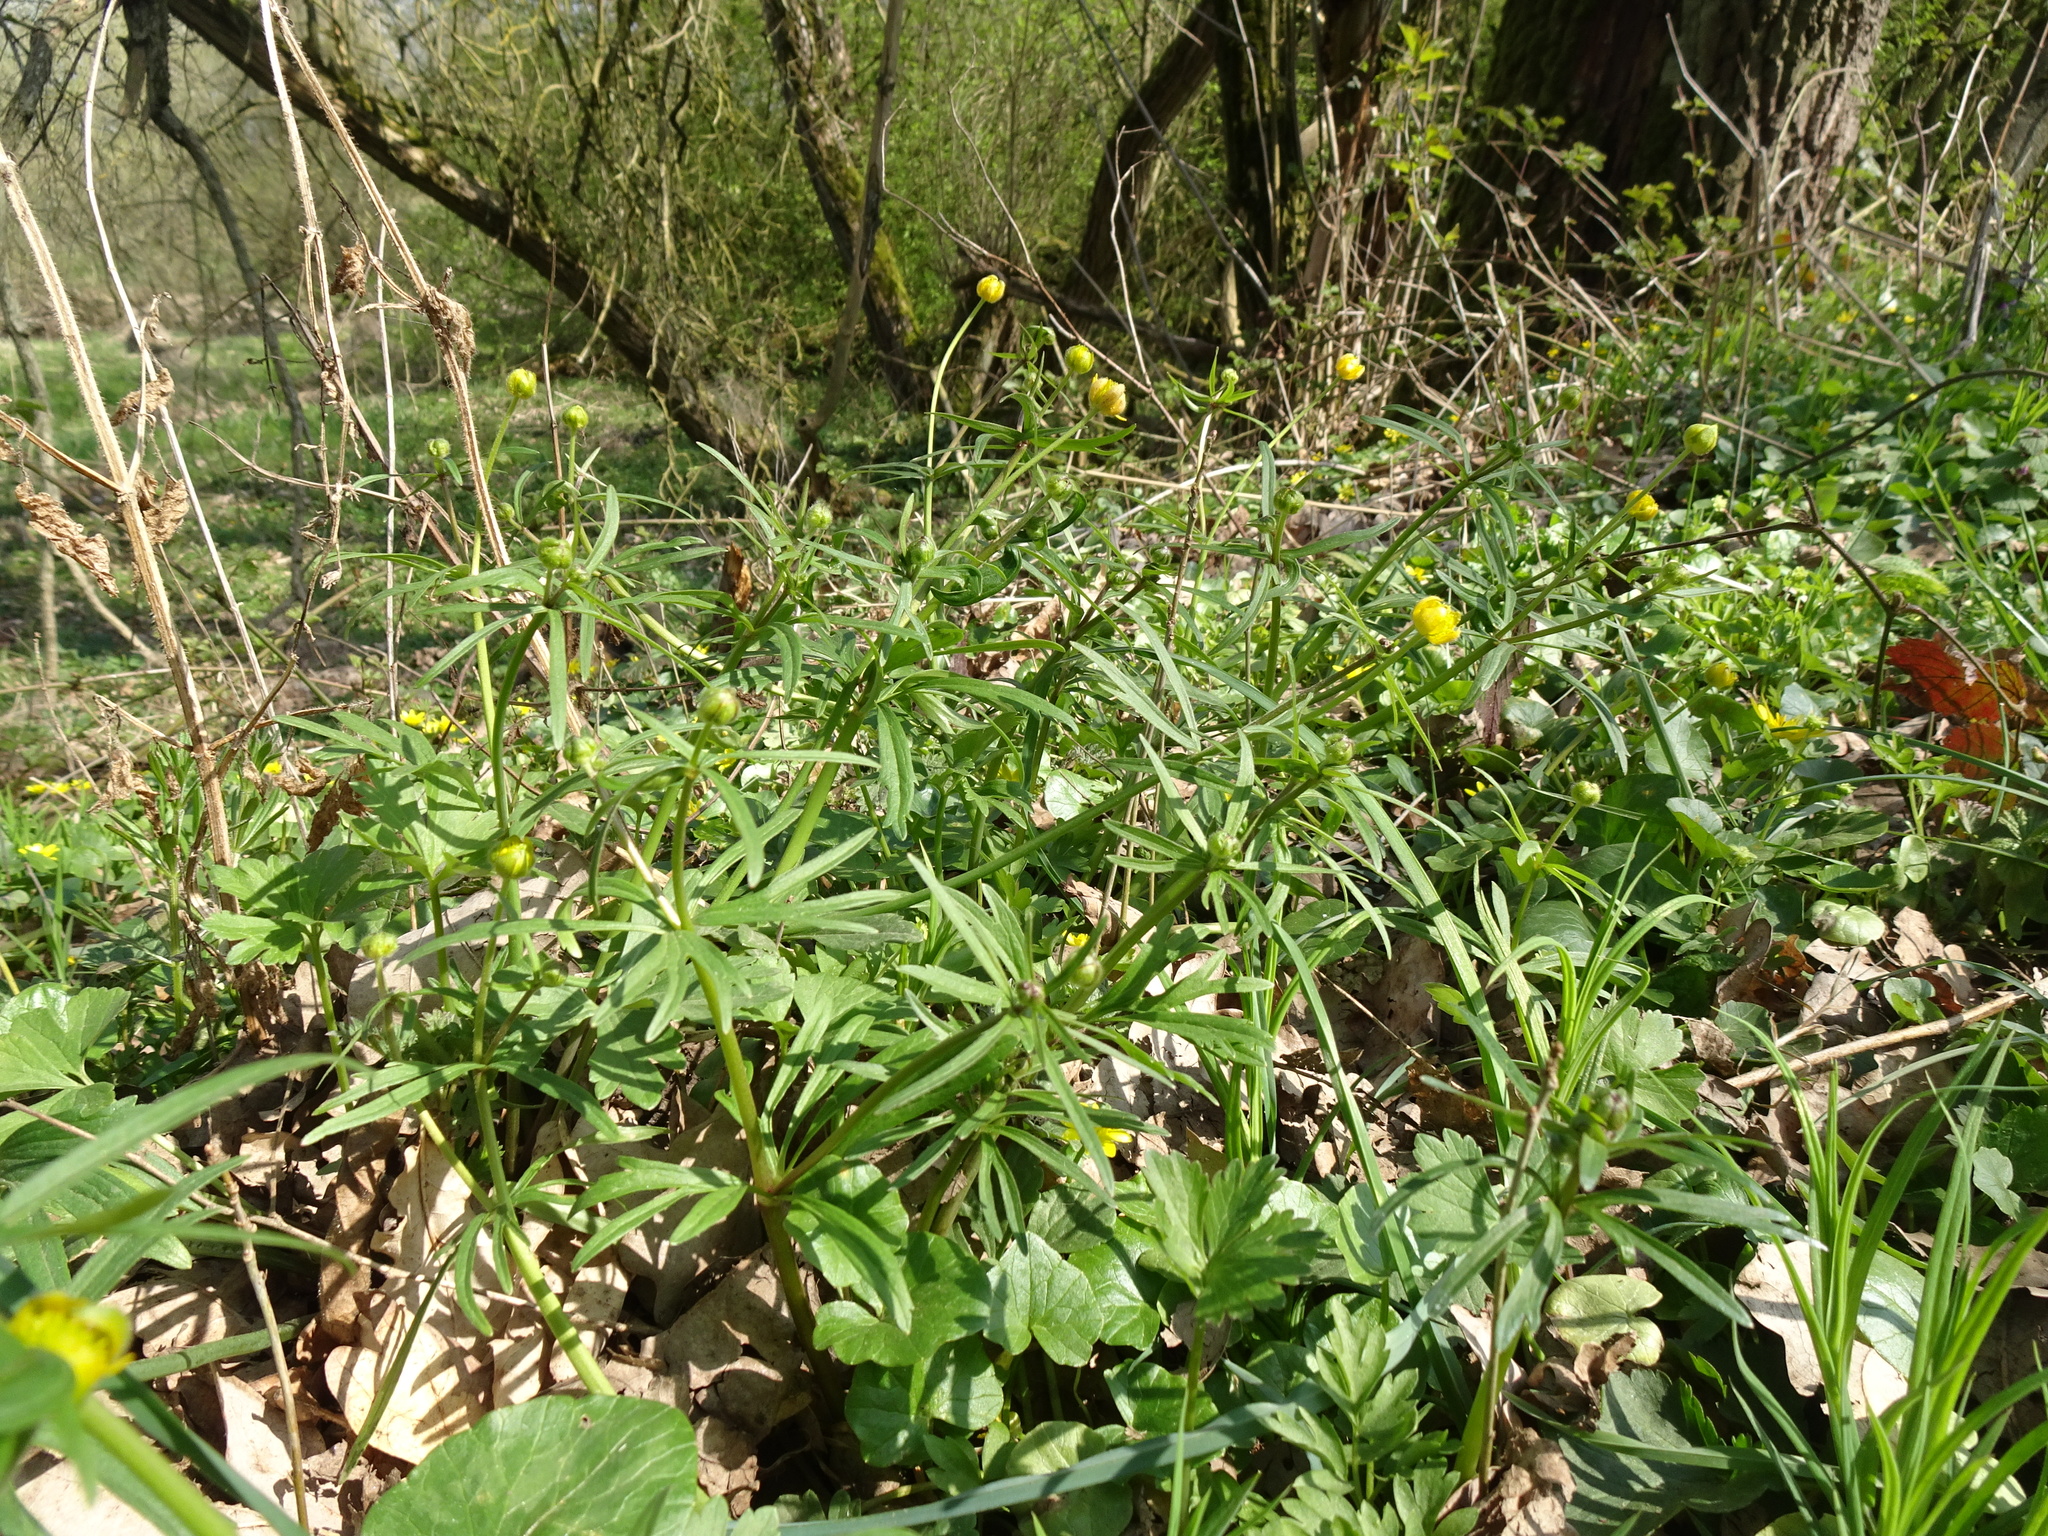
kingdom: Plantae
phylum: Tracheophyta
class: Magnoliopsida
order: Ranunculales
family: Ranunculaceae
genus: Ranunculus
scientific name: Ranunculus auricomus
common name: Goldilocks buttercup
